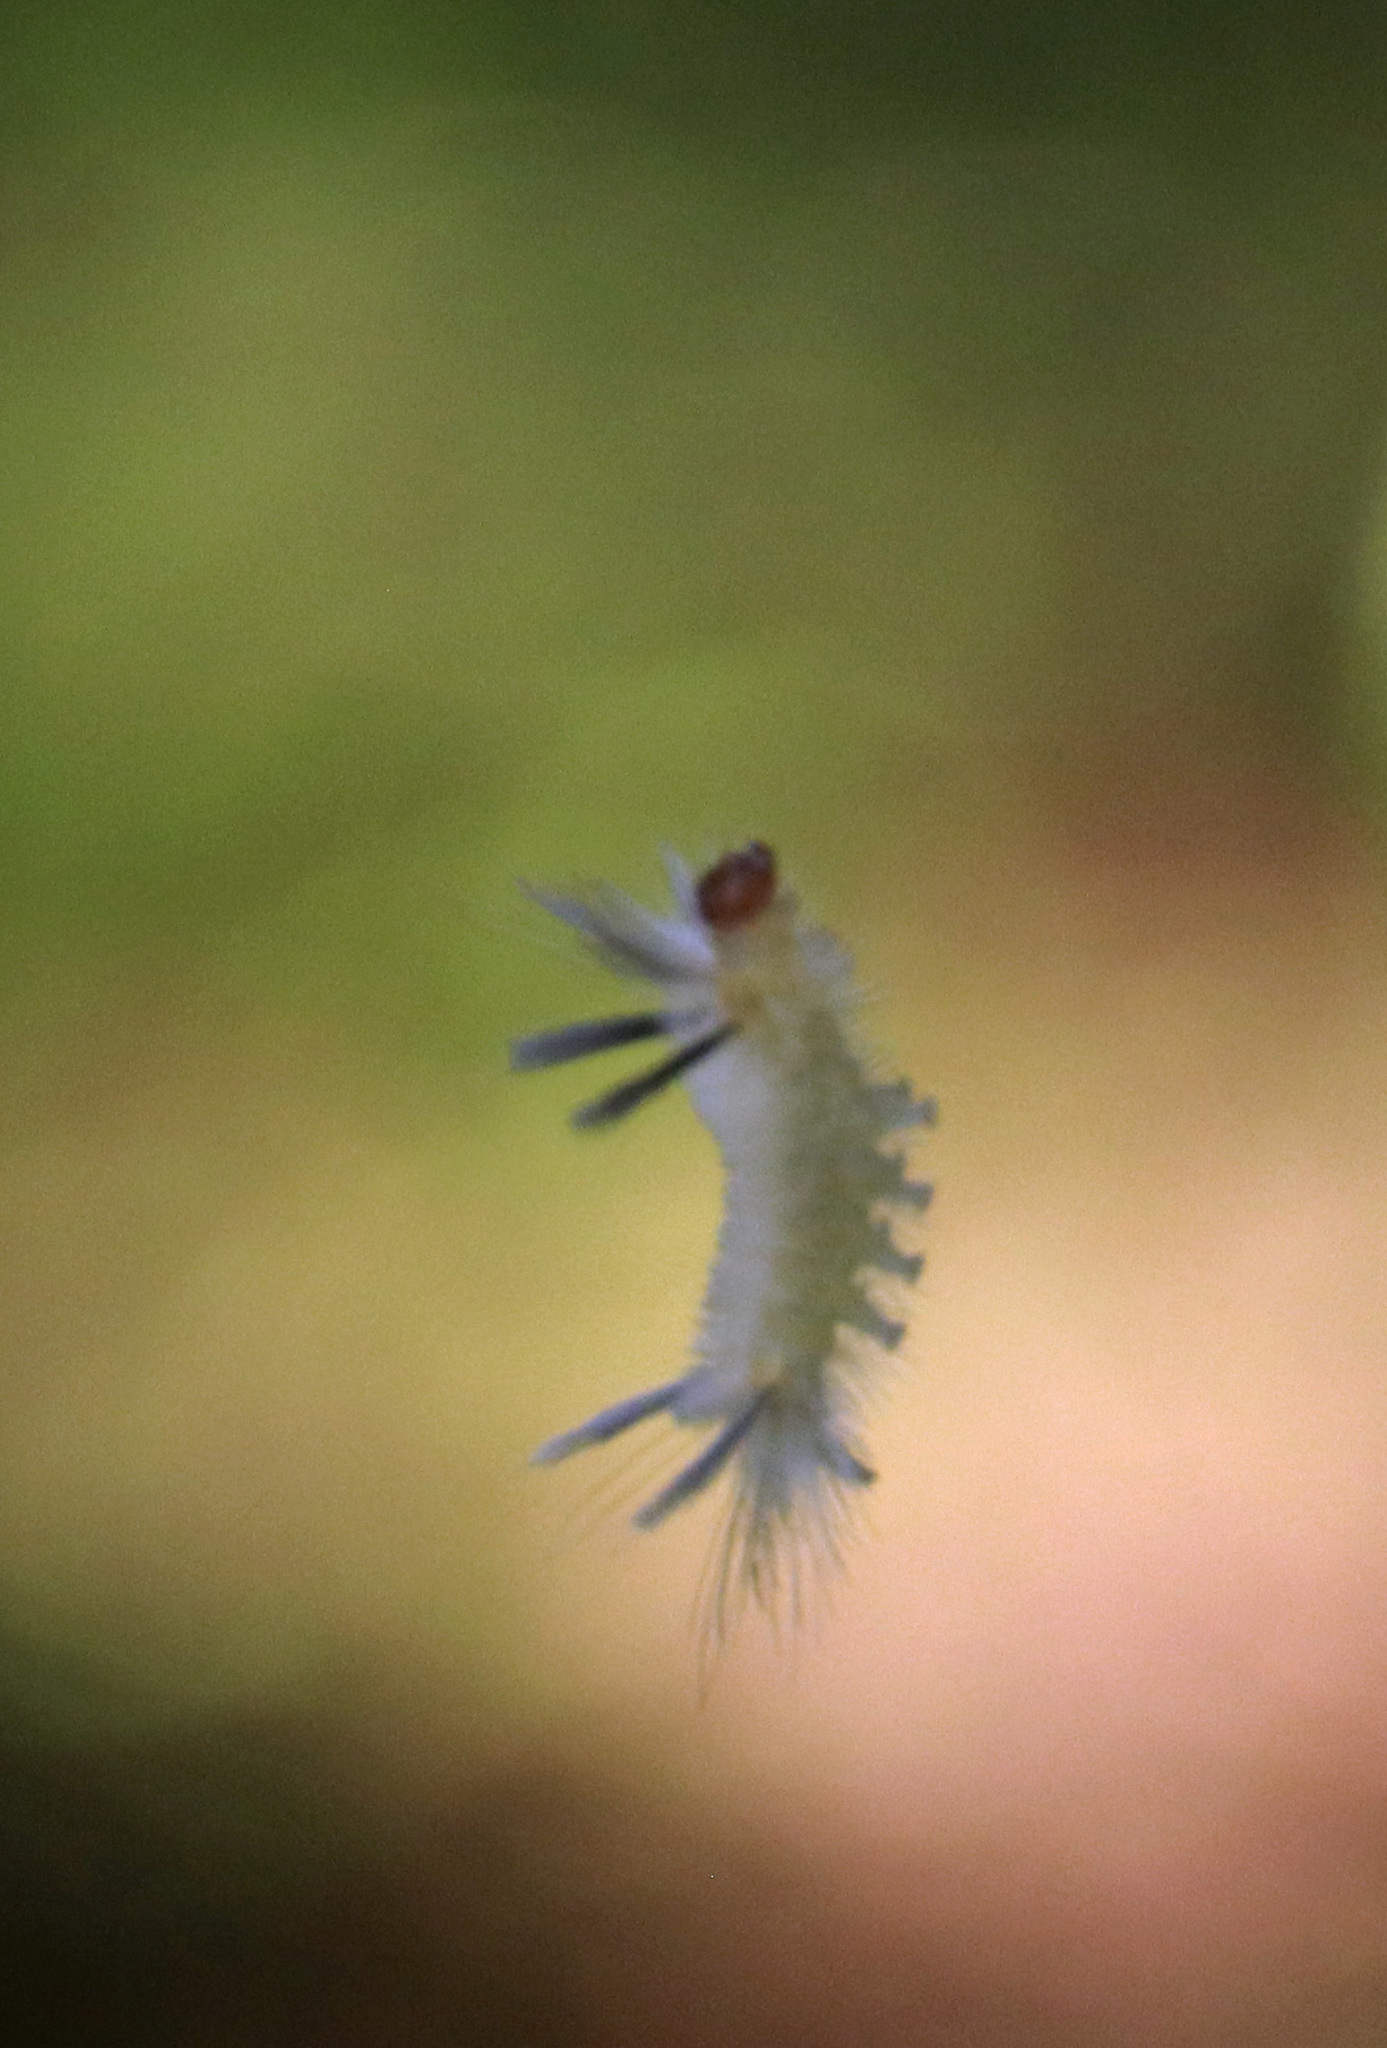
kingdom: Animalia
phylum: Arthropoda
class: Insecta
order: Lepidoptera
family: Erebidae
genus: Halysidota
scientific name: Halysidota tessellaris
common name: Banded tussock moth
